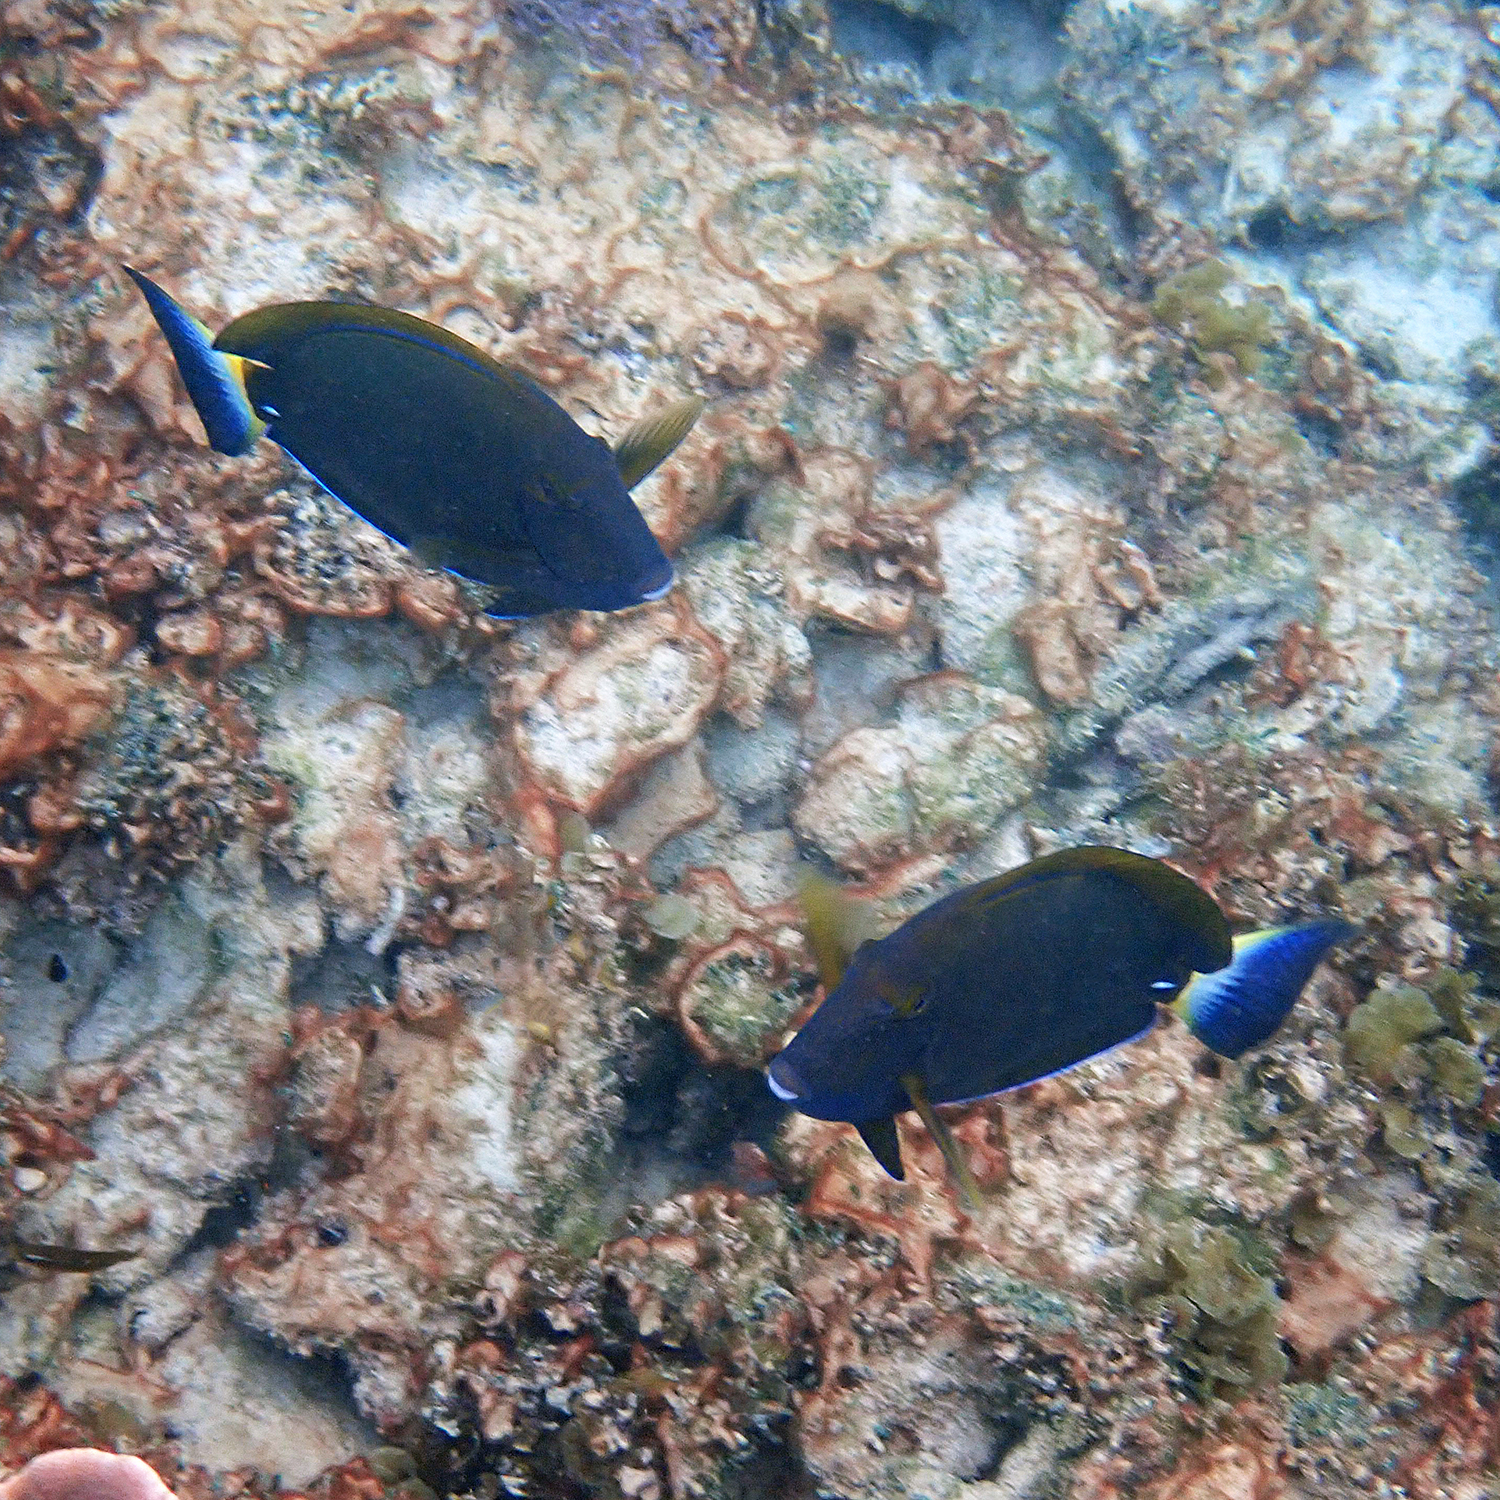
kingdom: Animalia
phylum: Chordata
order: Perciformes
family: Acanthuridae
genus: Acanthurus
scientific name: Acanthurus dussumieri
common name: Dussumier's surgeonfish
